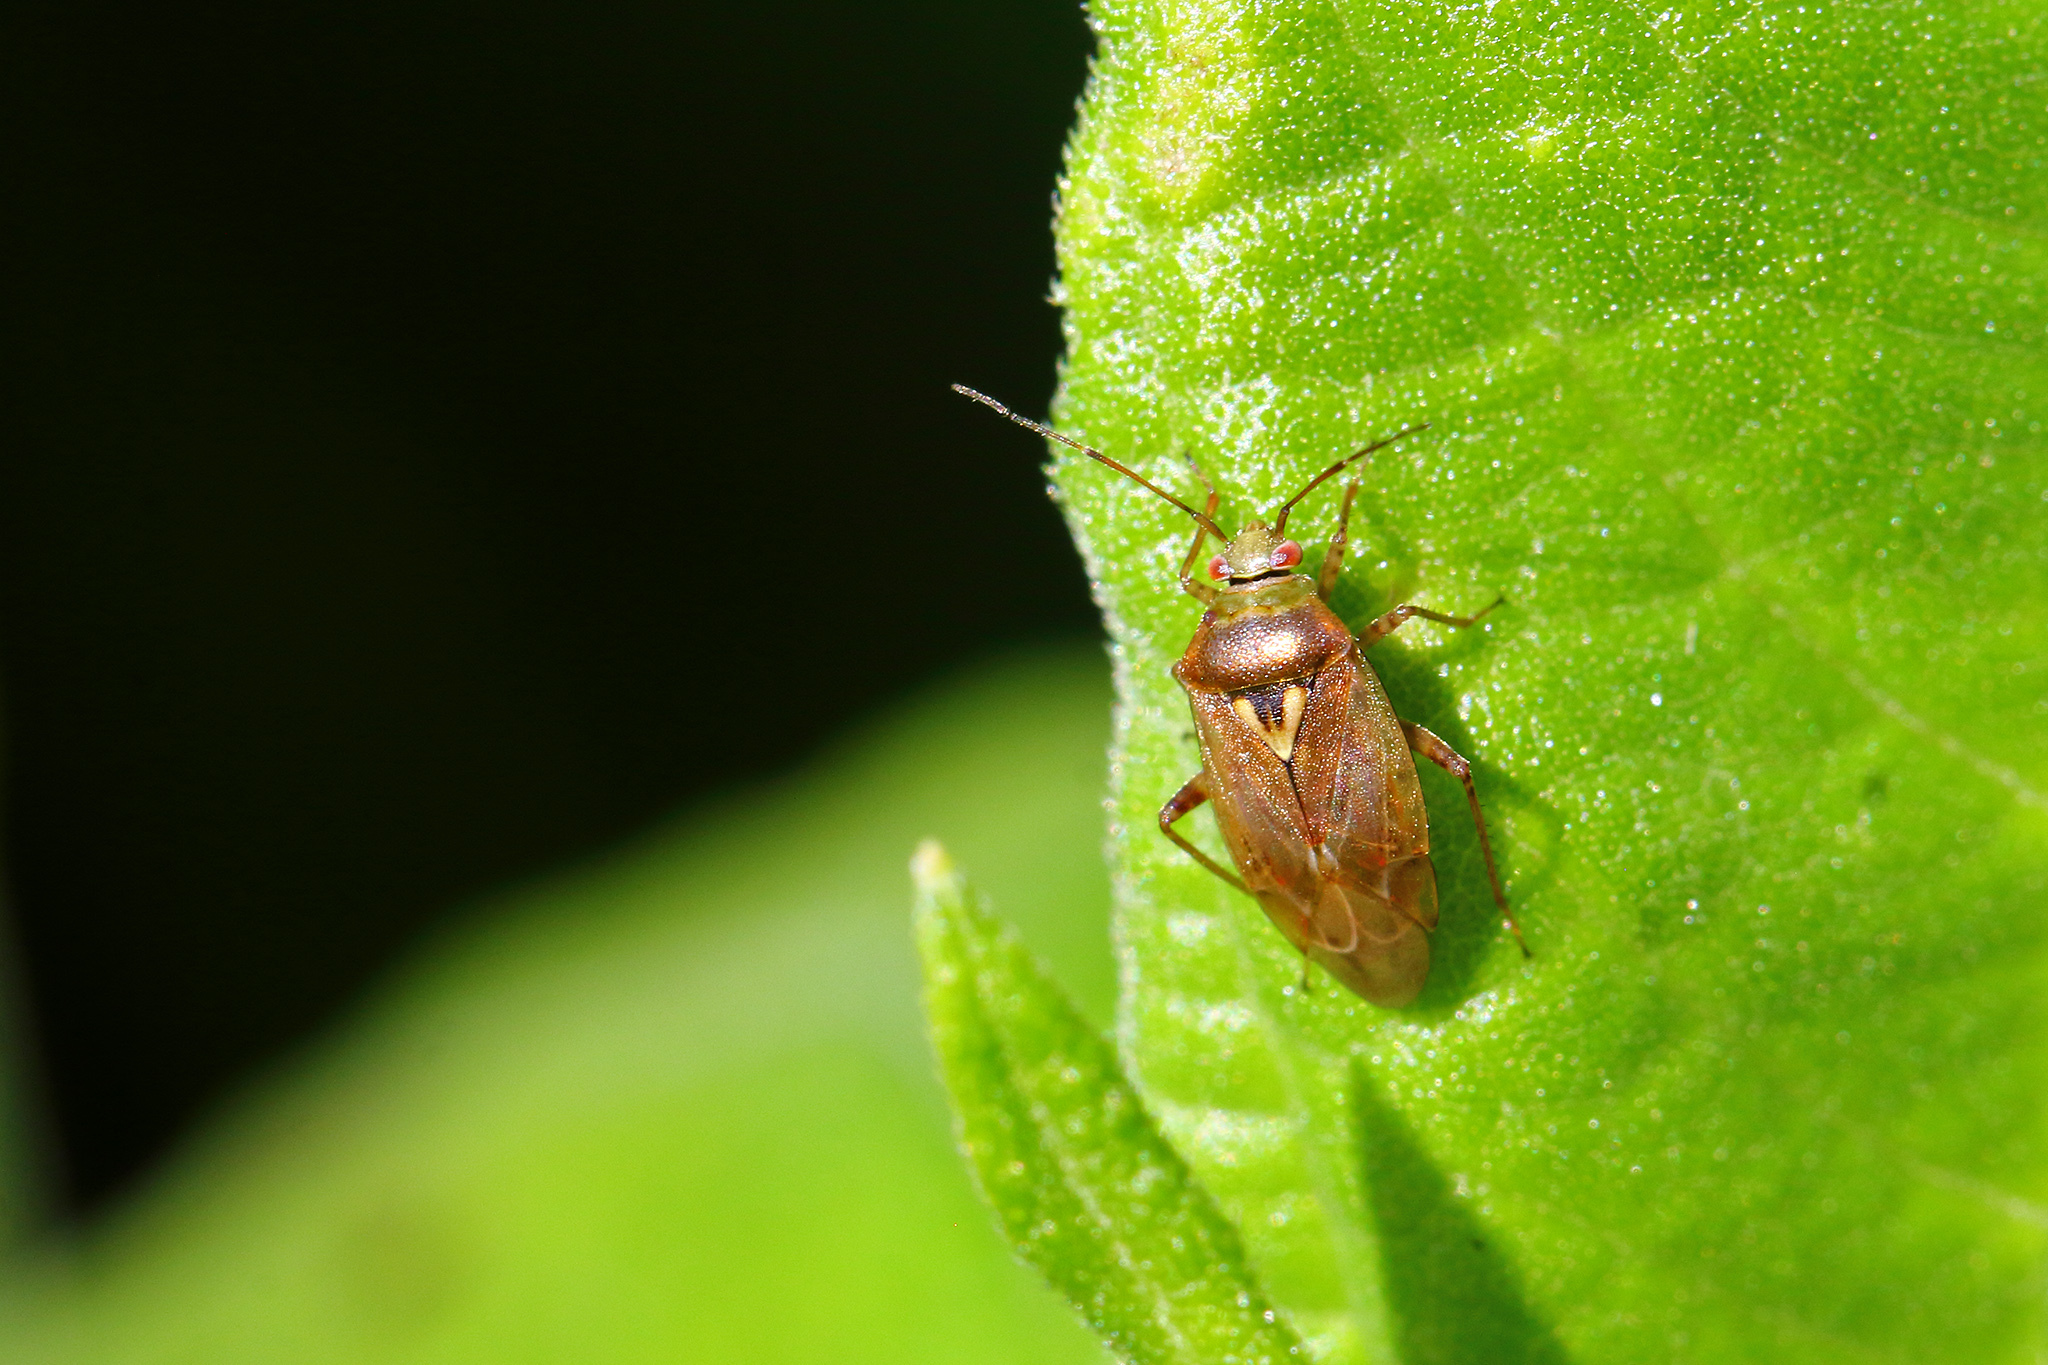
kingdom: Animalia
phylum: Arthropoda
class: Insecta
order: Hemiptera
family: Miridae
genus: Lygus
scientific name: Lygus rugulipennis
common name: European tarnished plant bug
